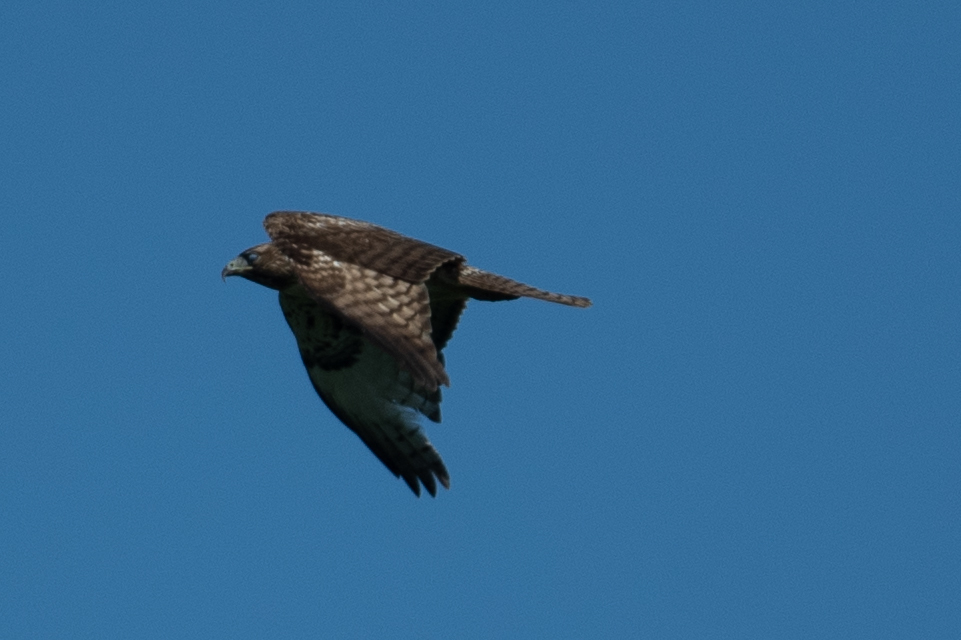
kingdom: Animalia
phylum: Chordata
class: Aves
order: Accipitriformes
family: Accipitridae
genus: Buteo
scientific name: Buteo jamaicensis
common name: Red-tailed hawk
